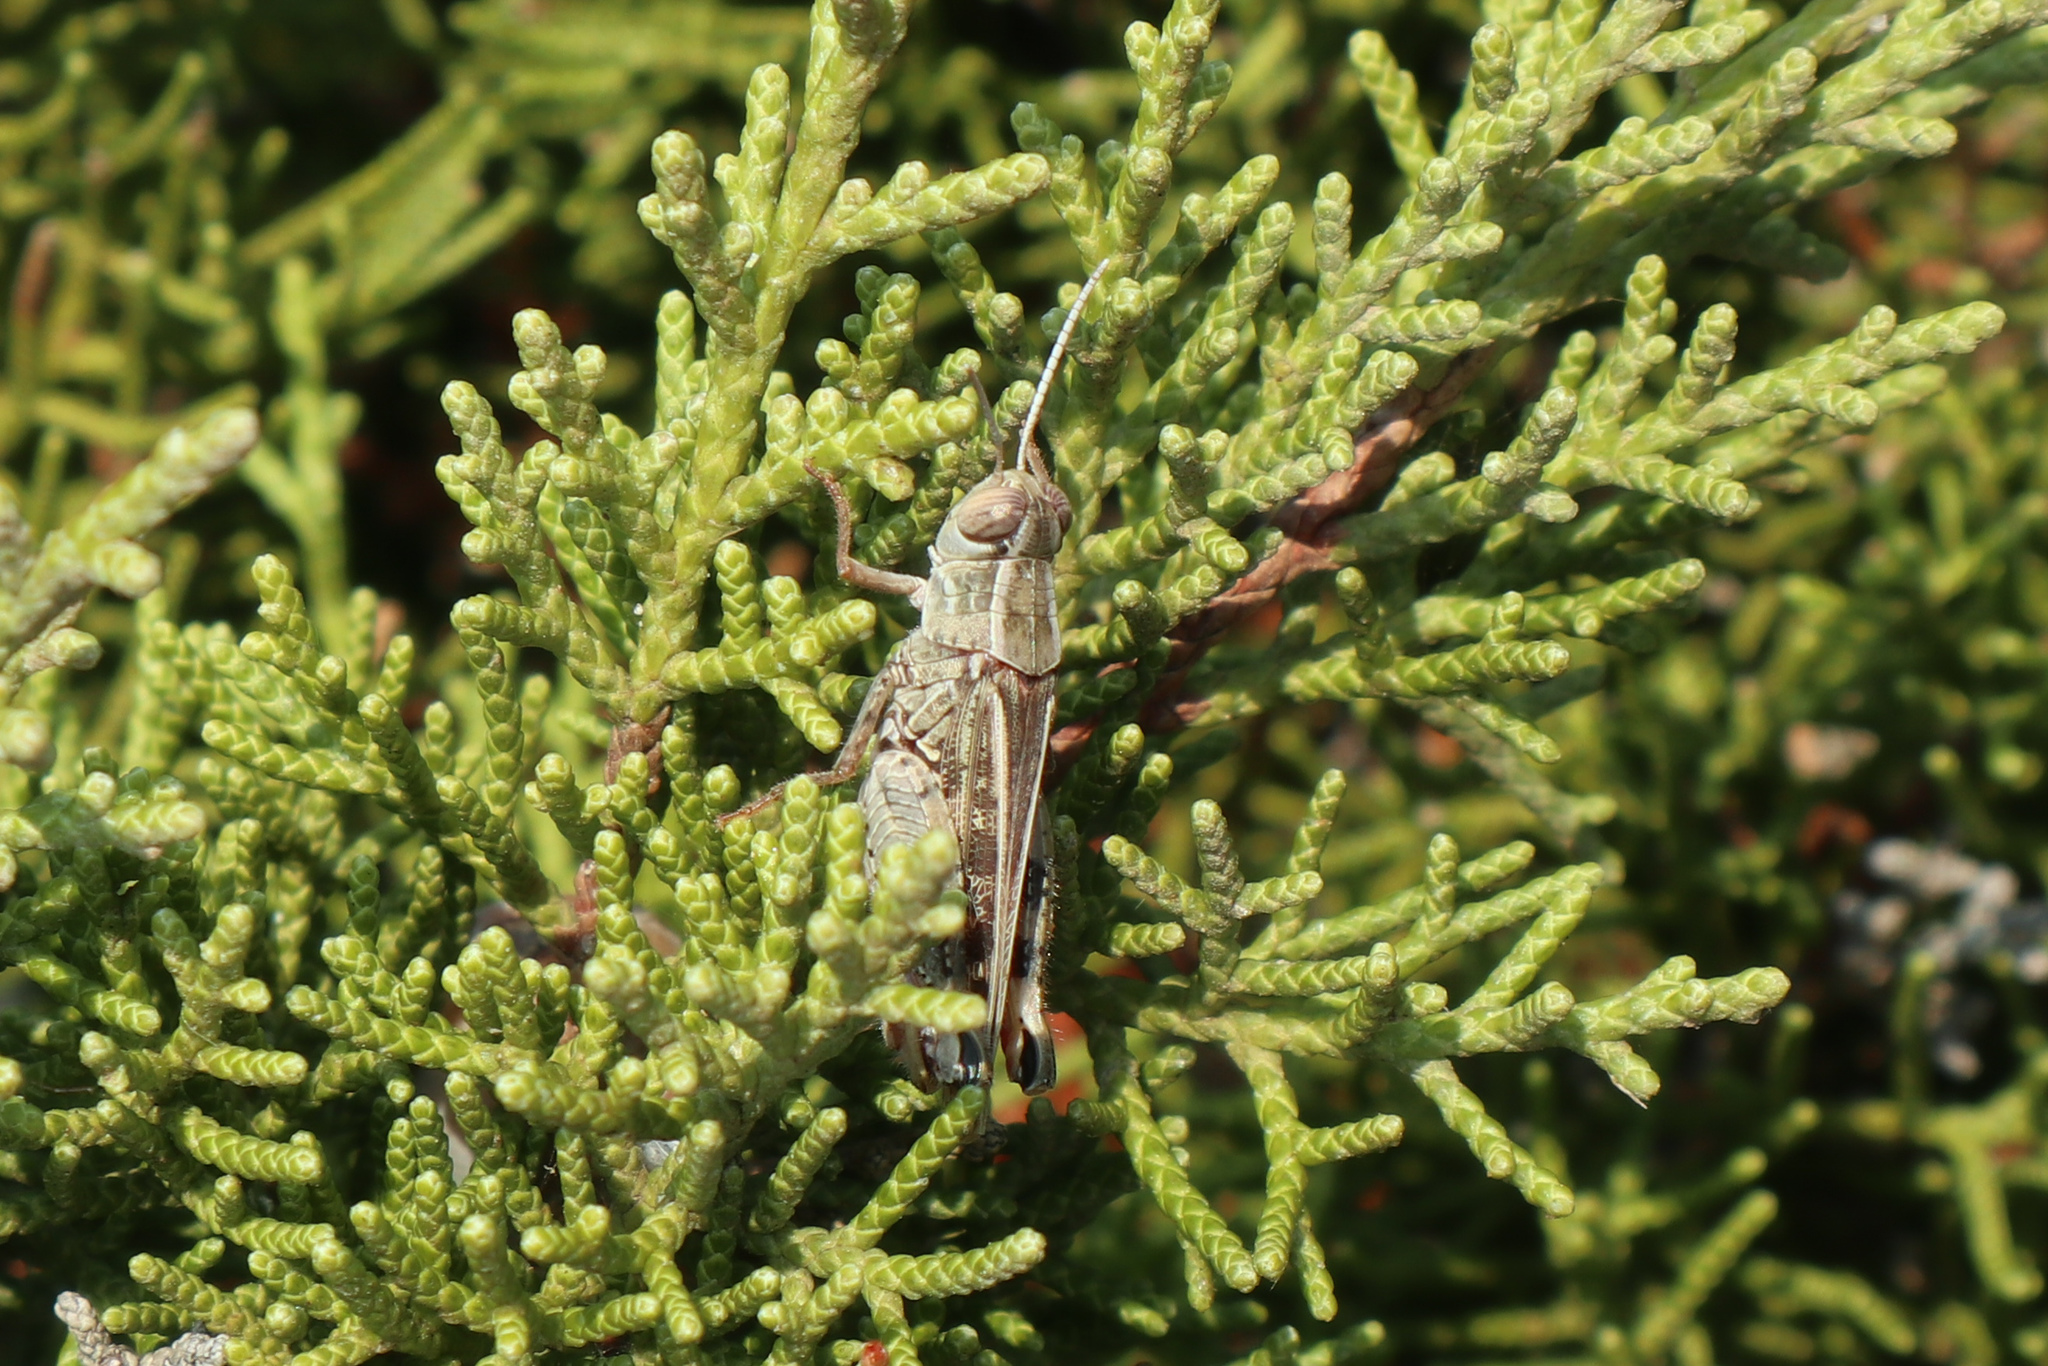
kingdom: Animalia
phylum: Arthropoda
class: Insecta
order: Orthoptera
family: Acrididae
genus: Calliptamus
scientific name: Calliptamus italicus
